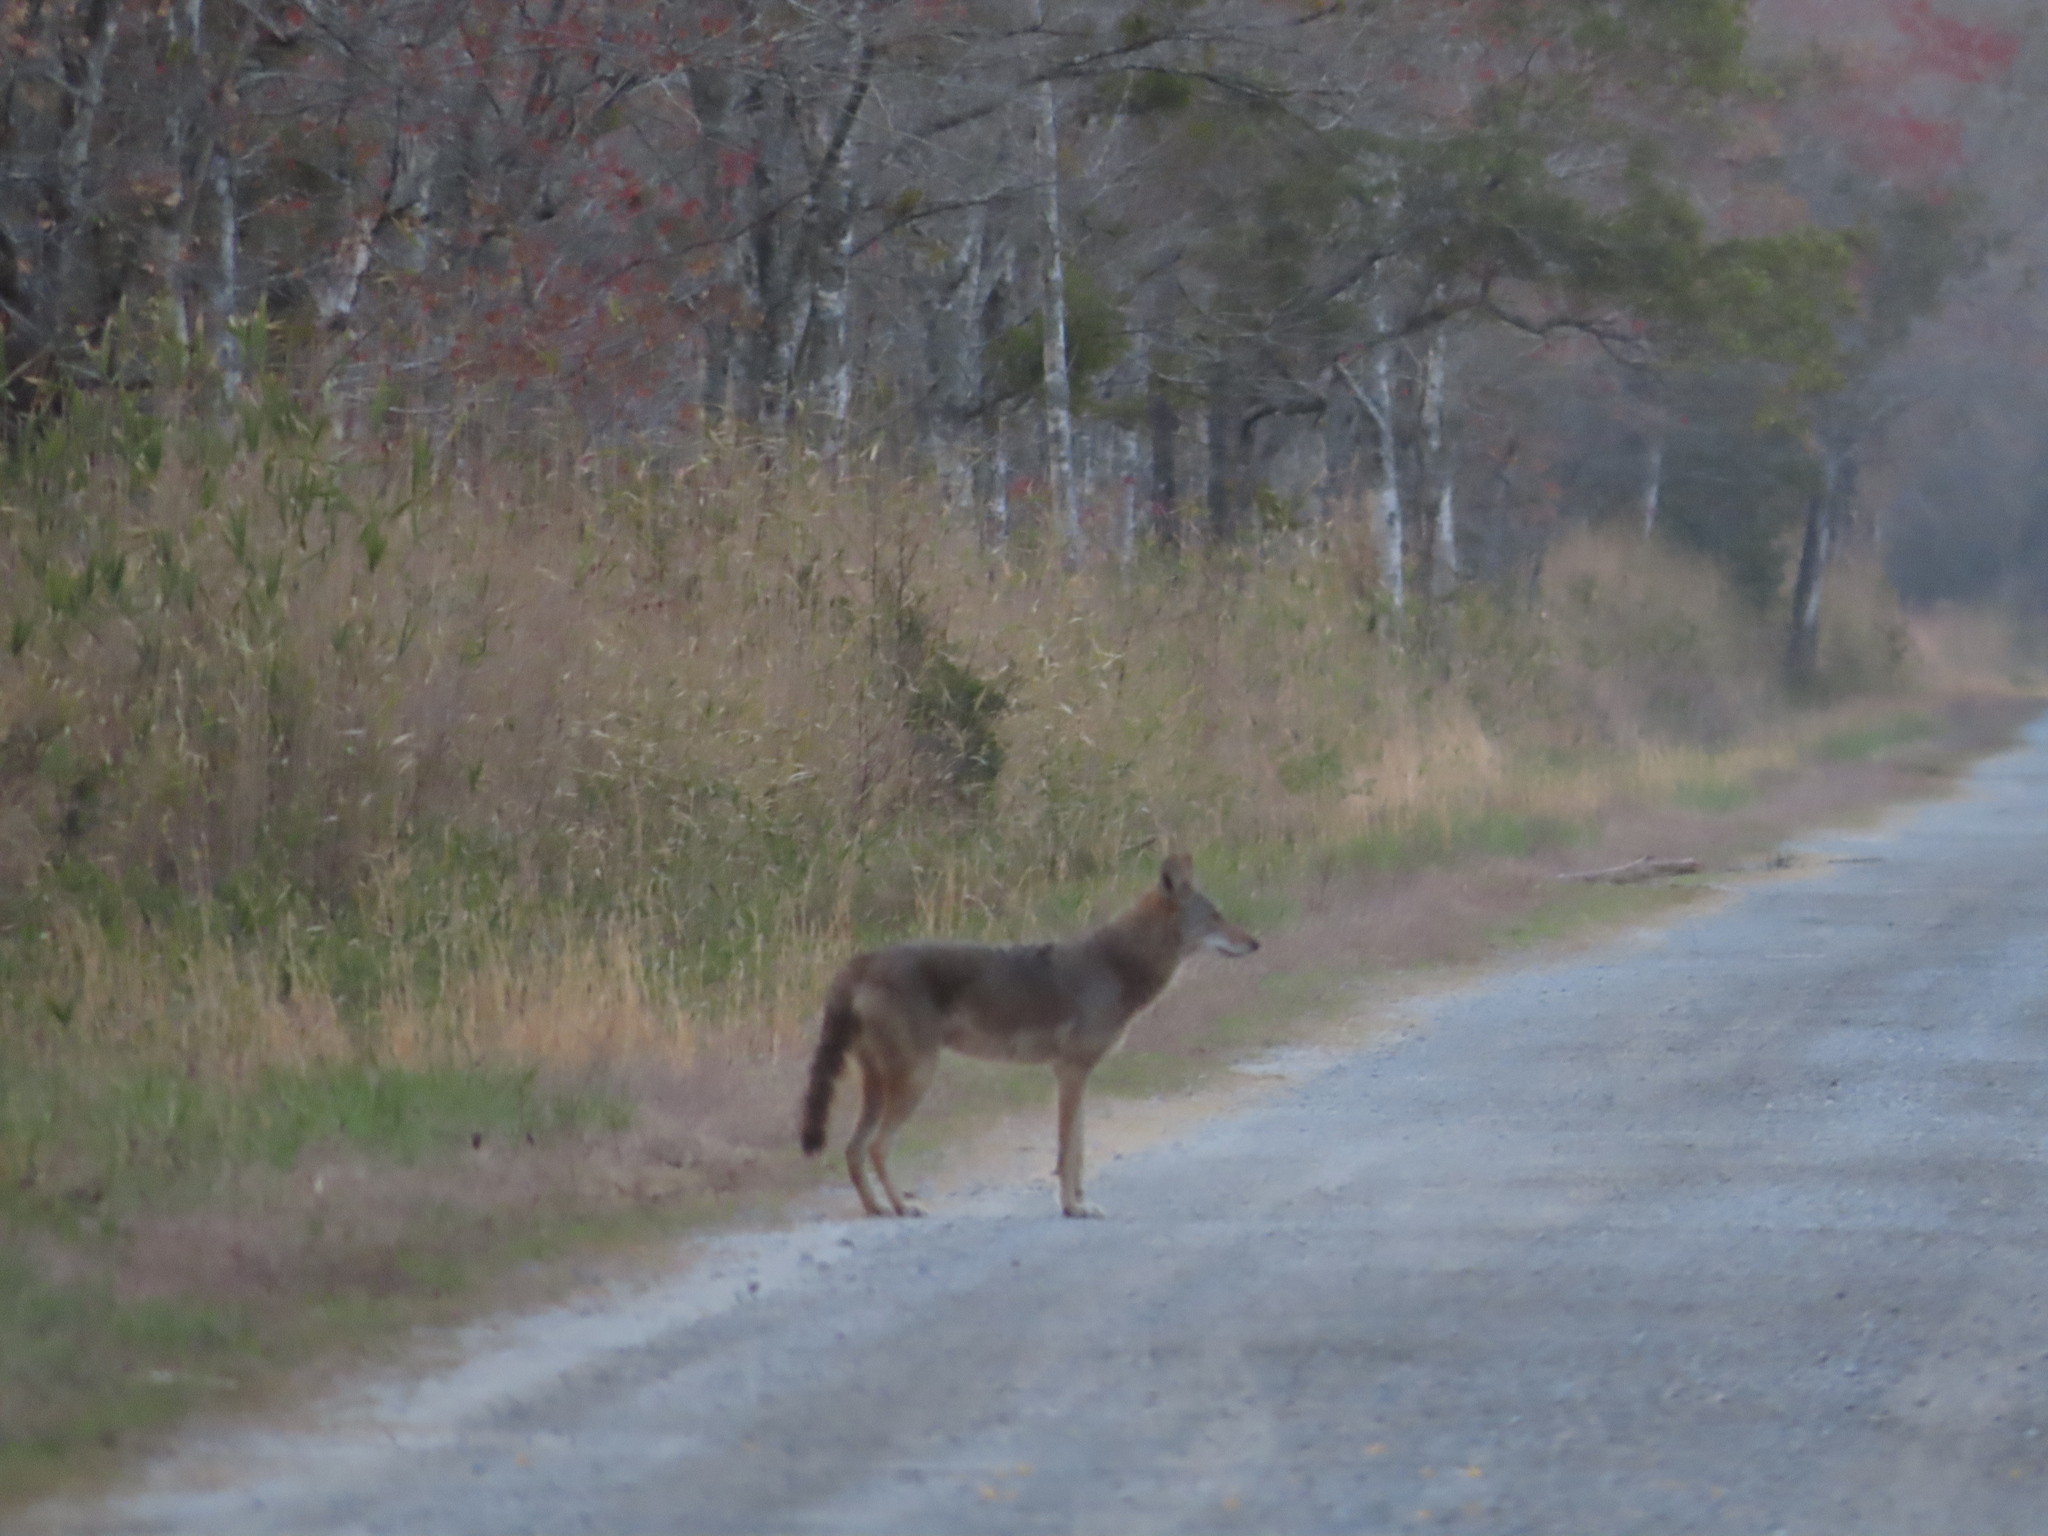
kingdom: Animalia
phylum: Chordata
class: Mammalia
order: Carnivora
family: Canidae
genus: Canis
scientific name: Canis latrans
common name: Coyote
